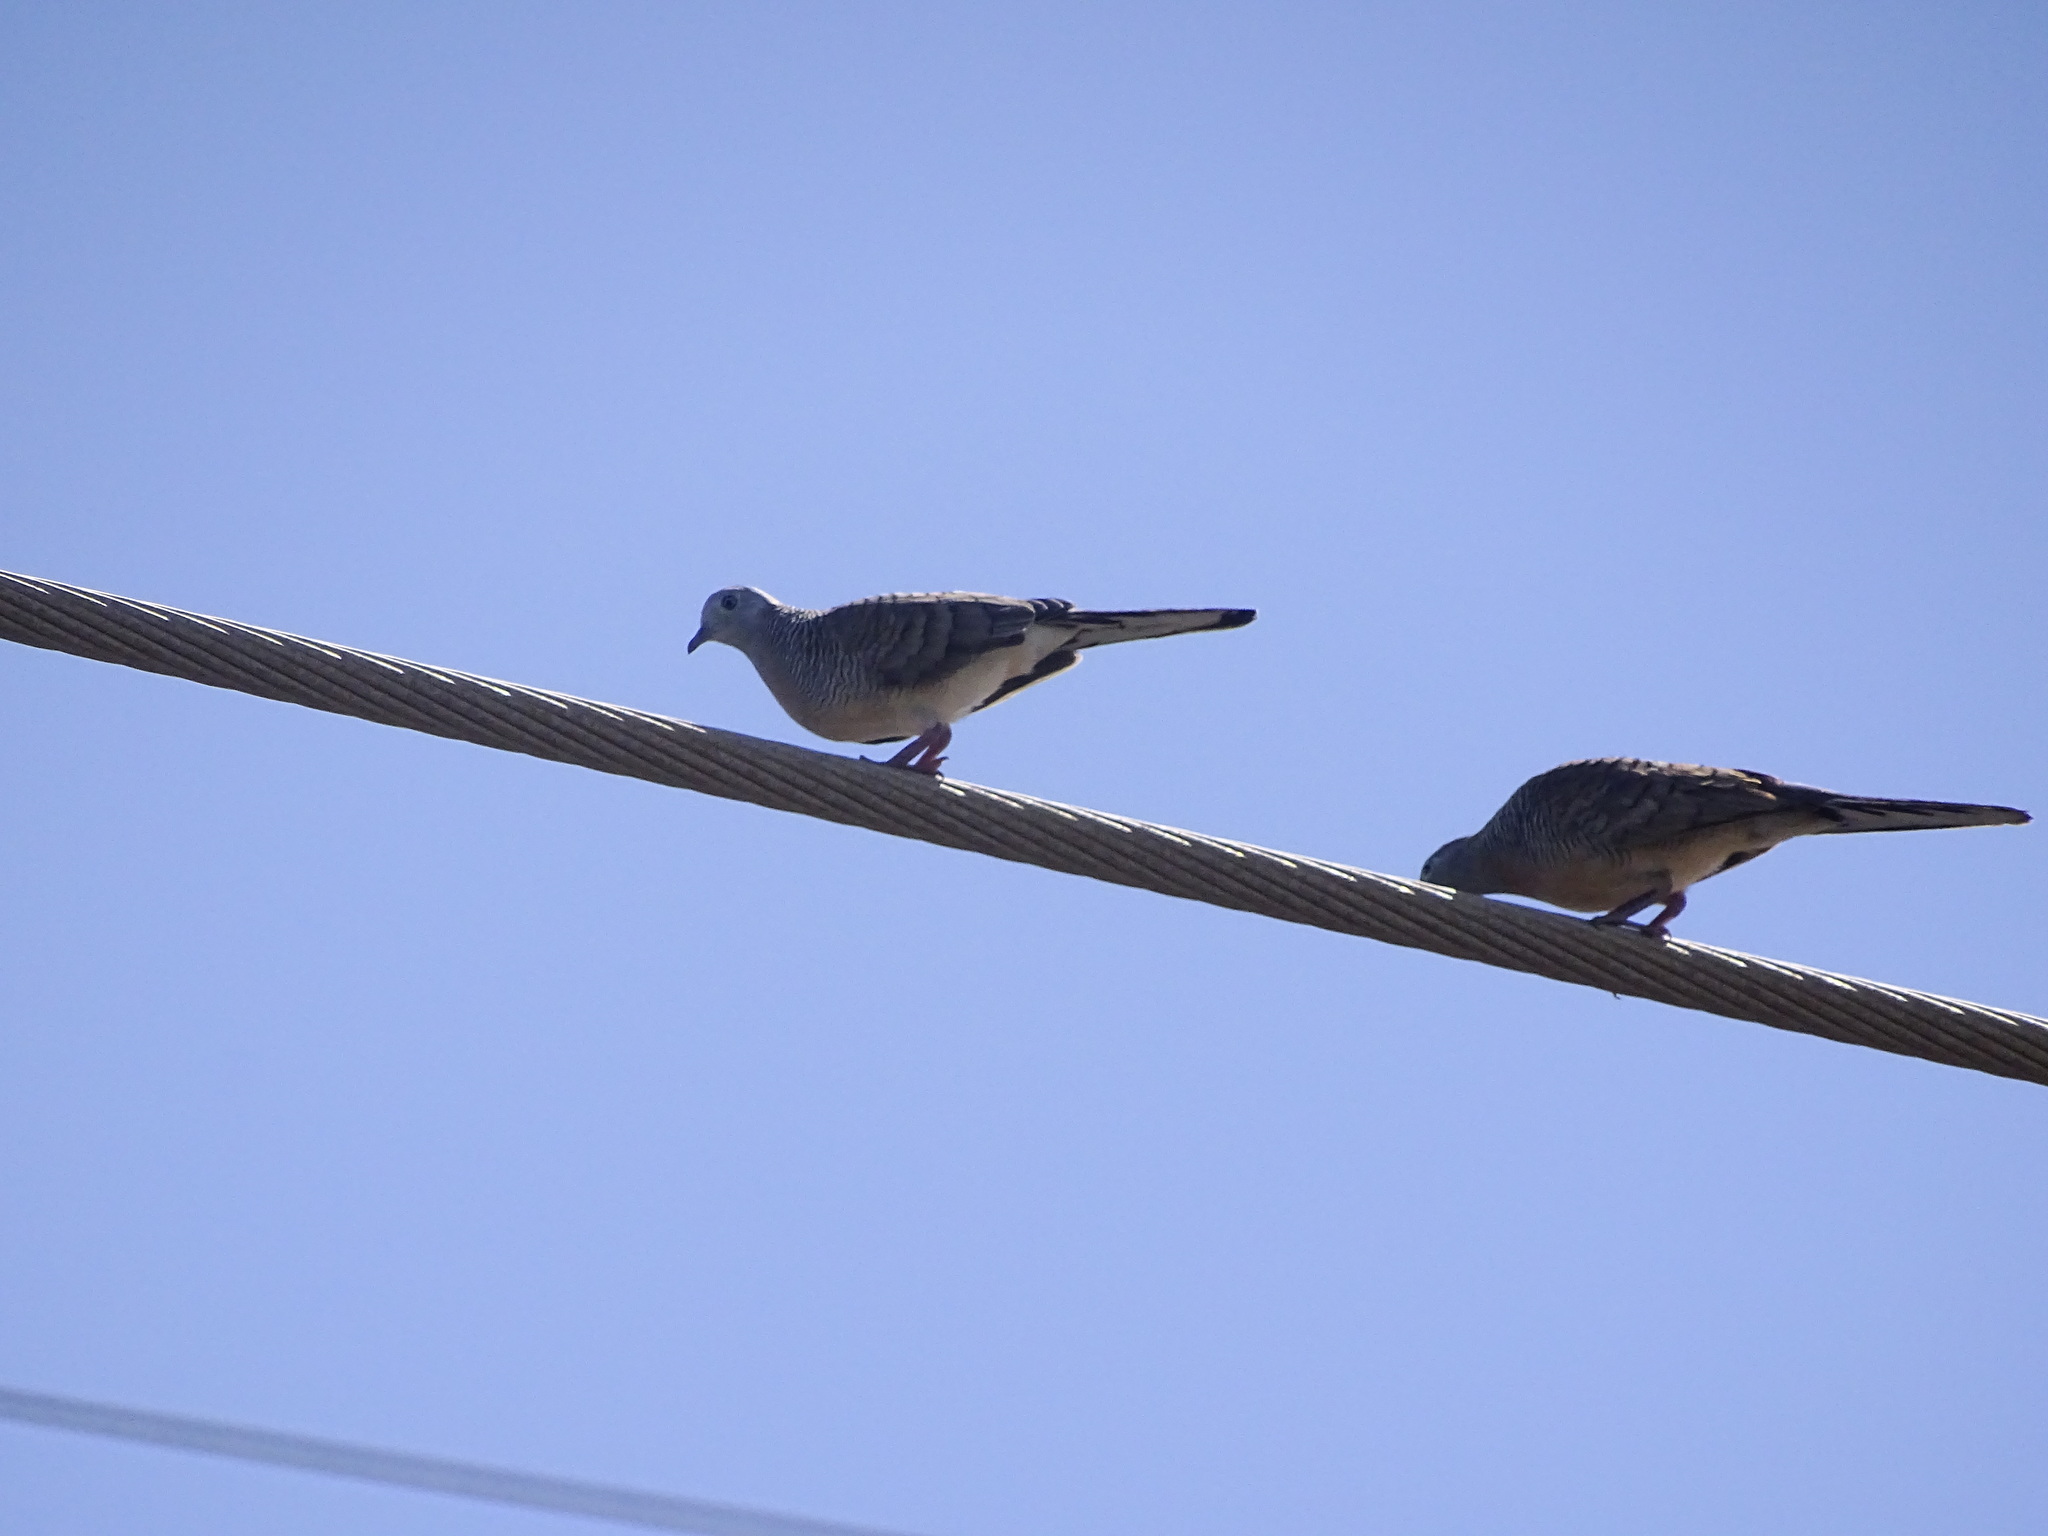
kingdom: Animalia
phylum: Chordata
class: Aves
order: Columbiformes
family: Columbidae
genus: Geopelia
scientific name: Geopelia striata
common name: Zebra dove
